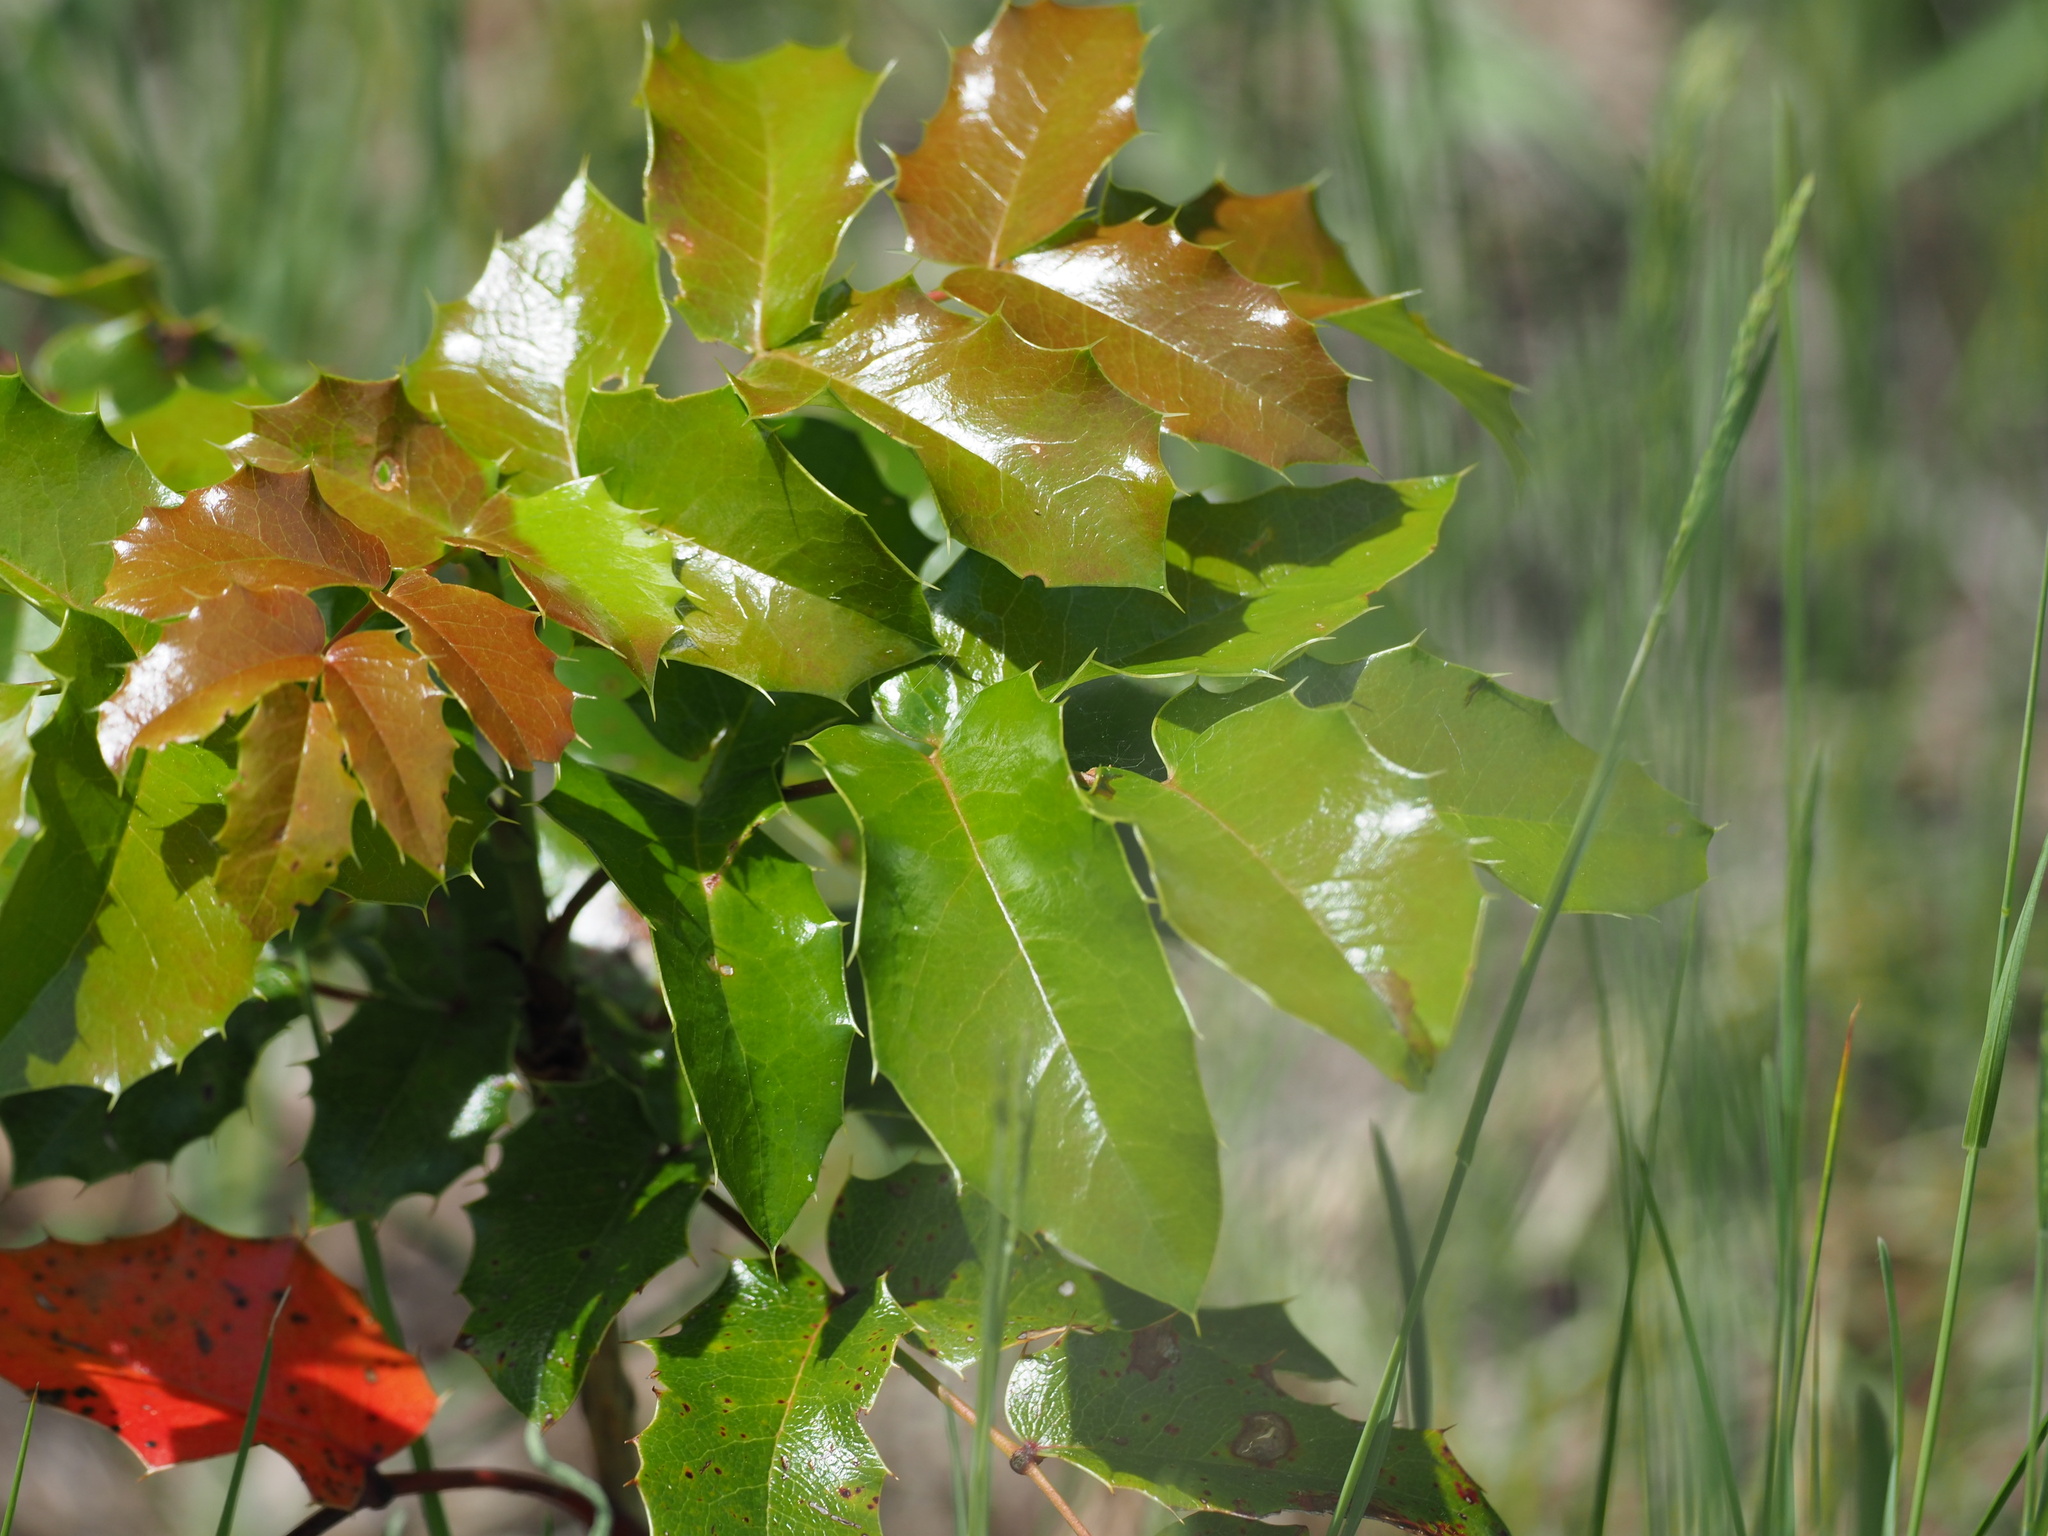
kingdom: Plantae
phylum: Tracheophyta
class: Magnoliopsida
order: Ranunculales
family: Berberidaceae
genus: Mahonia
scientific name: Mahonia aquifolium
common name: Oregon-grape
